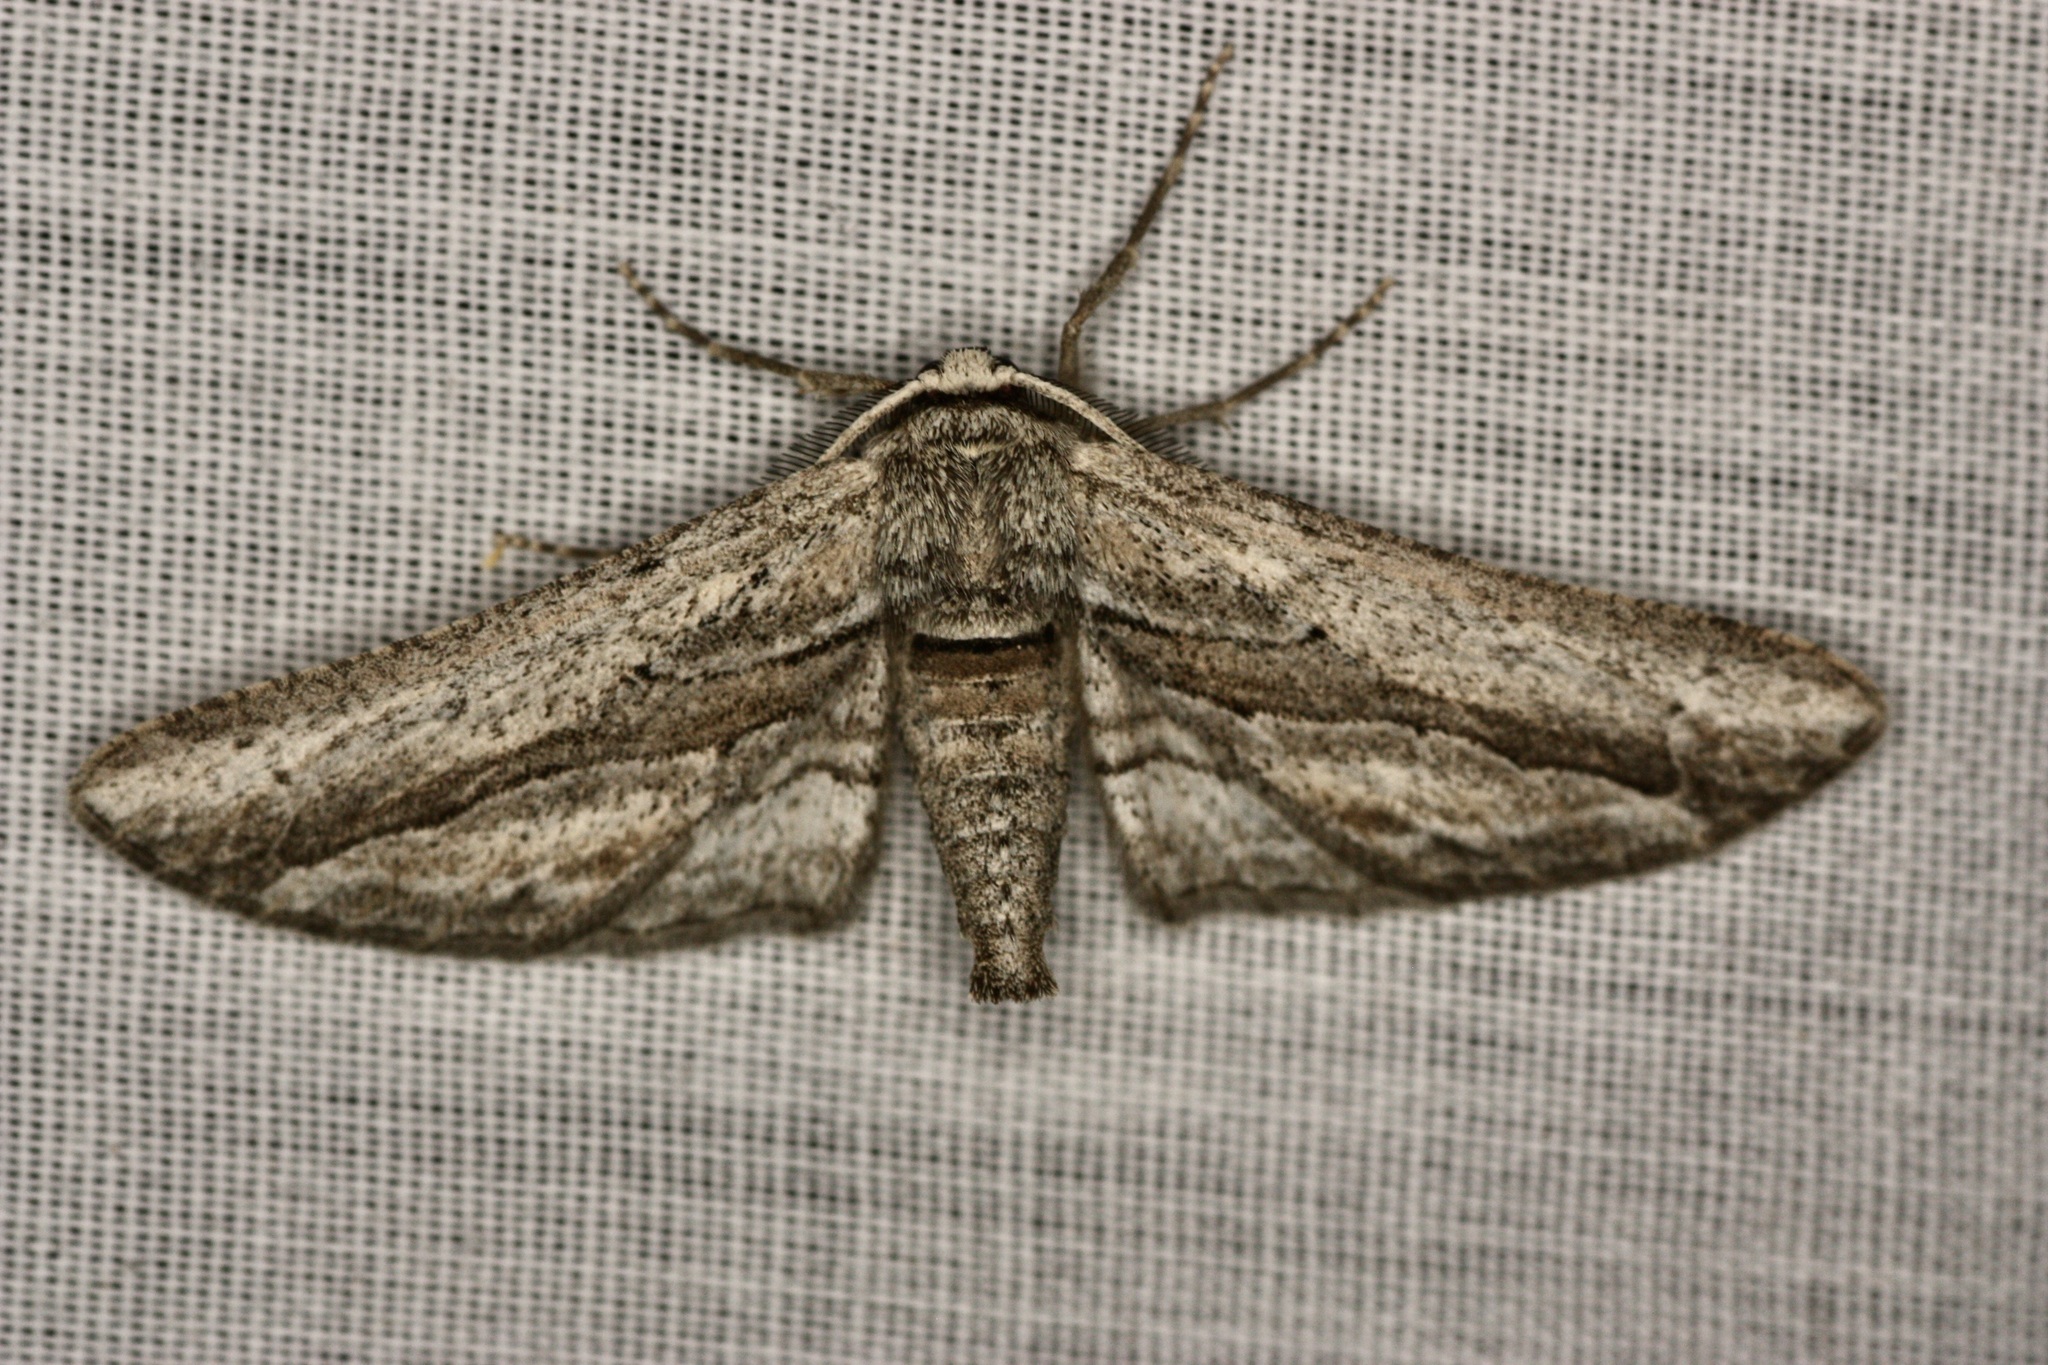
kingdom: Animalia
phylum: Arthropoda
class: Insecta
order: Lepidoptera
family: Geometridae
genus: Holochroa
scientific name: Holochroa dissociarius
